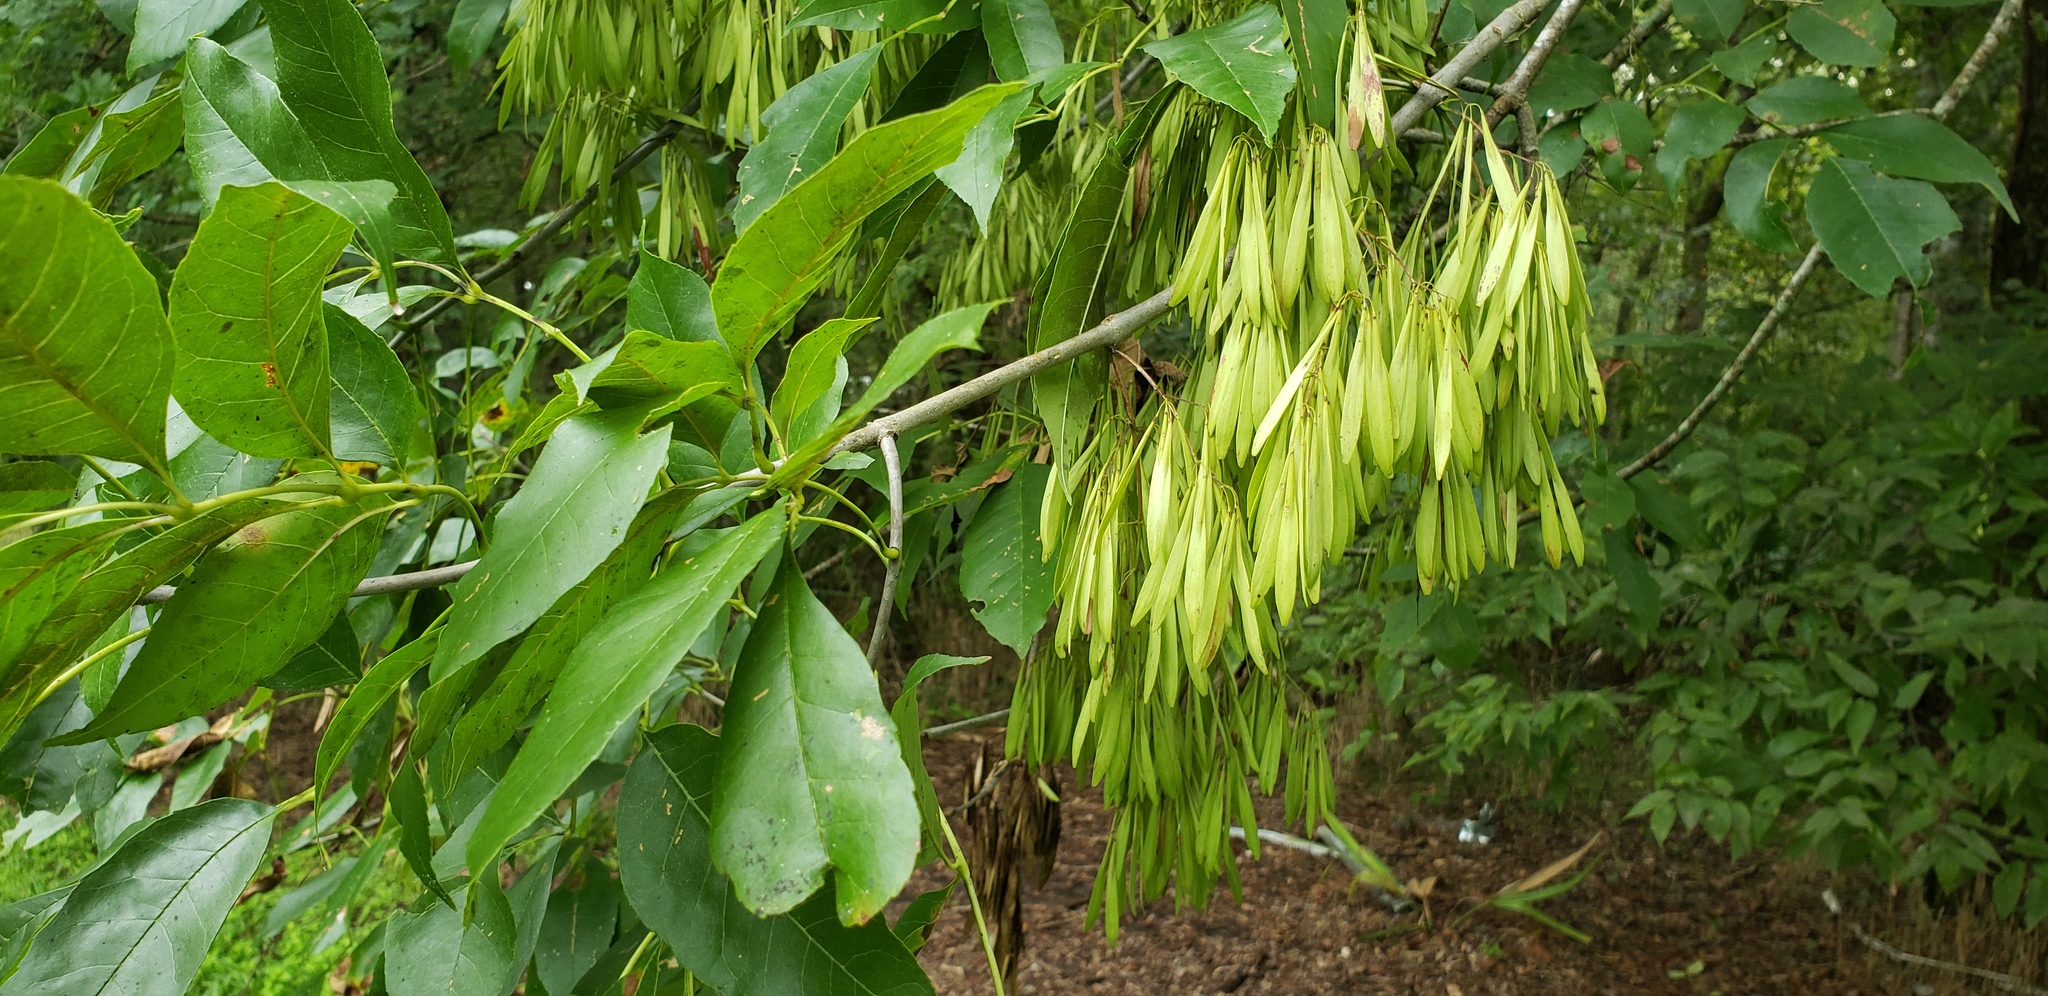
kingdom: Plantae
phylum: Tracheophyta
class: Magnoliopsida
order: Lamiales
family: Oleaceae
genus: Fraxinus
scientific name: Fraxinus pennsylvanica
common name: Green ash
